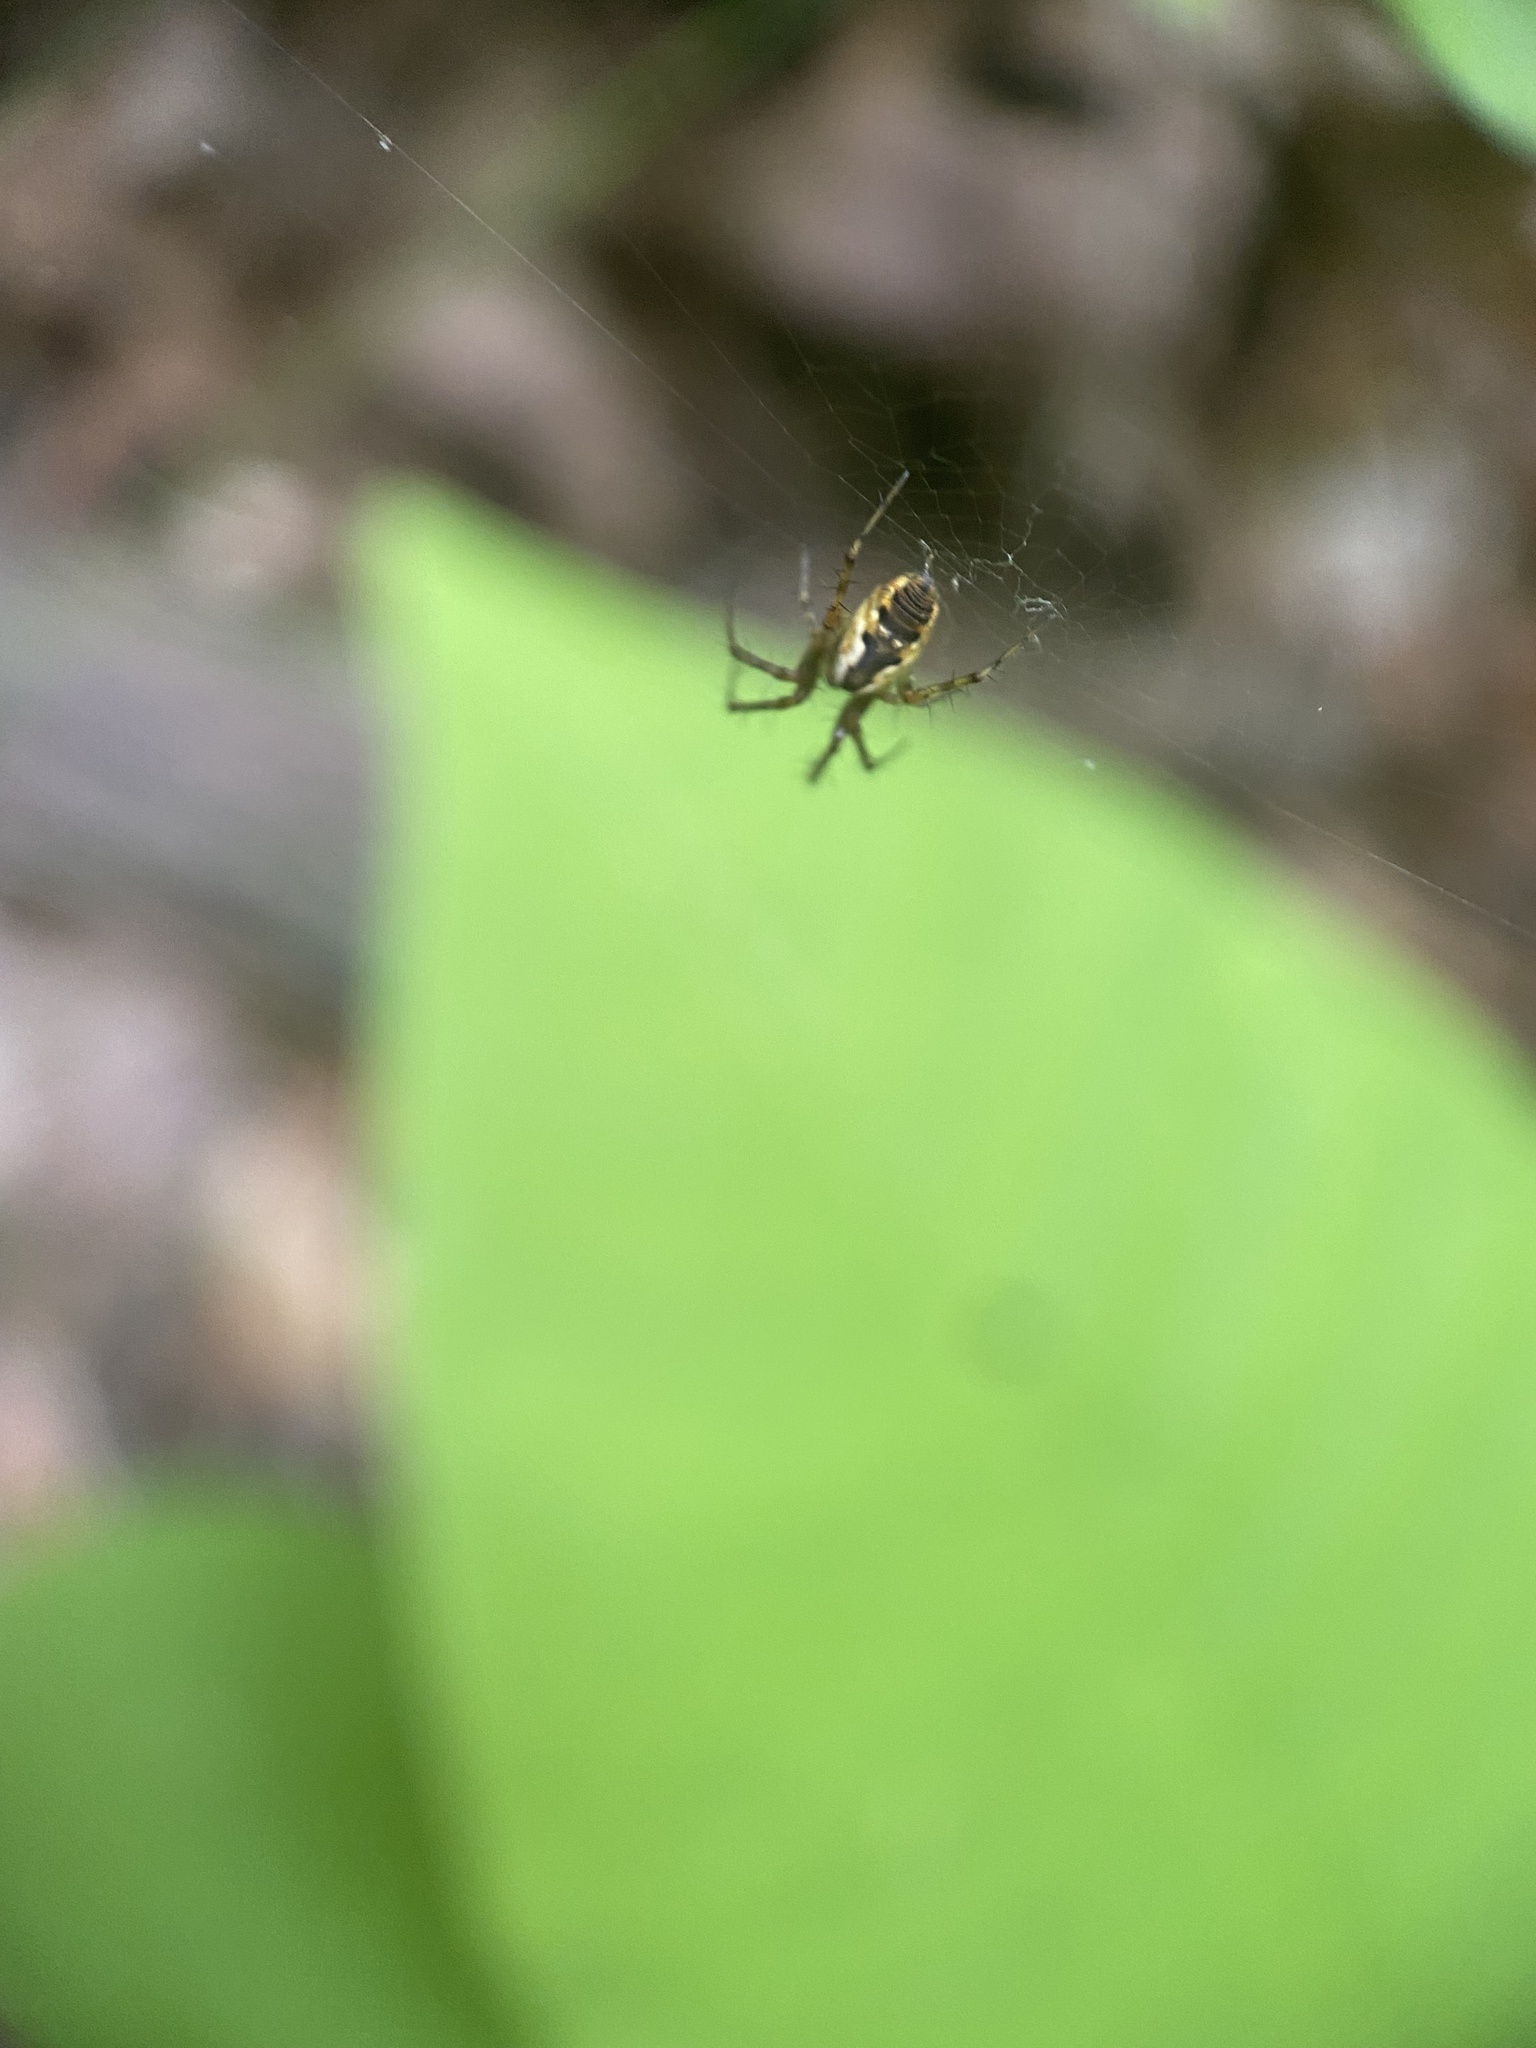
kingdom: Animalia
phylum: Arthropoda
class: Arachnida
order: Araneae
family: Araneidae
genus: Mangora
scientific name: Mangora placida
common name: Tuft-legged orbweaver
